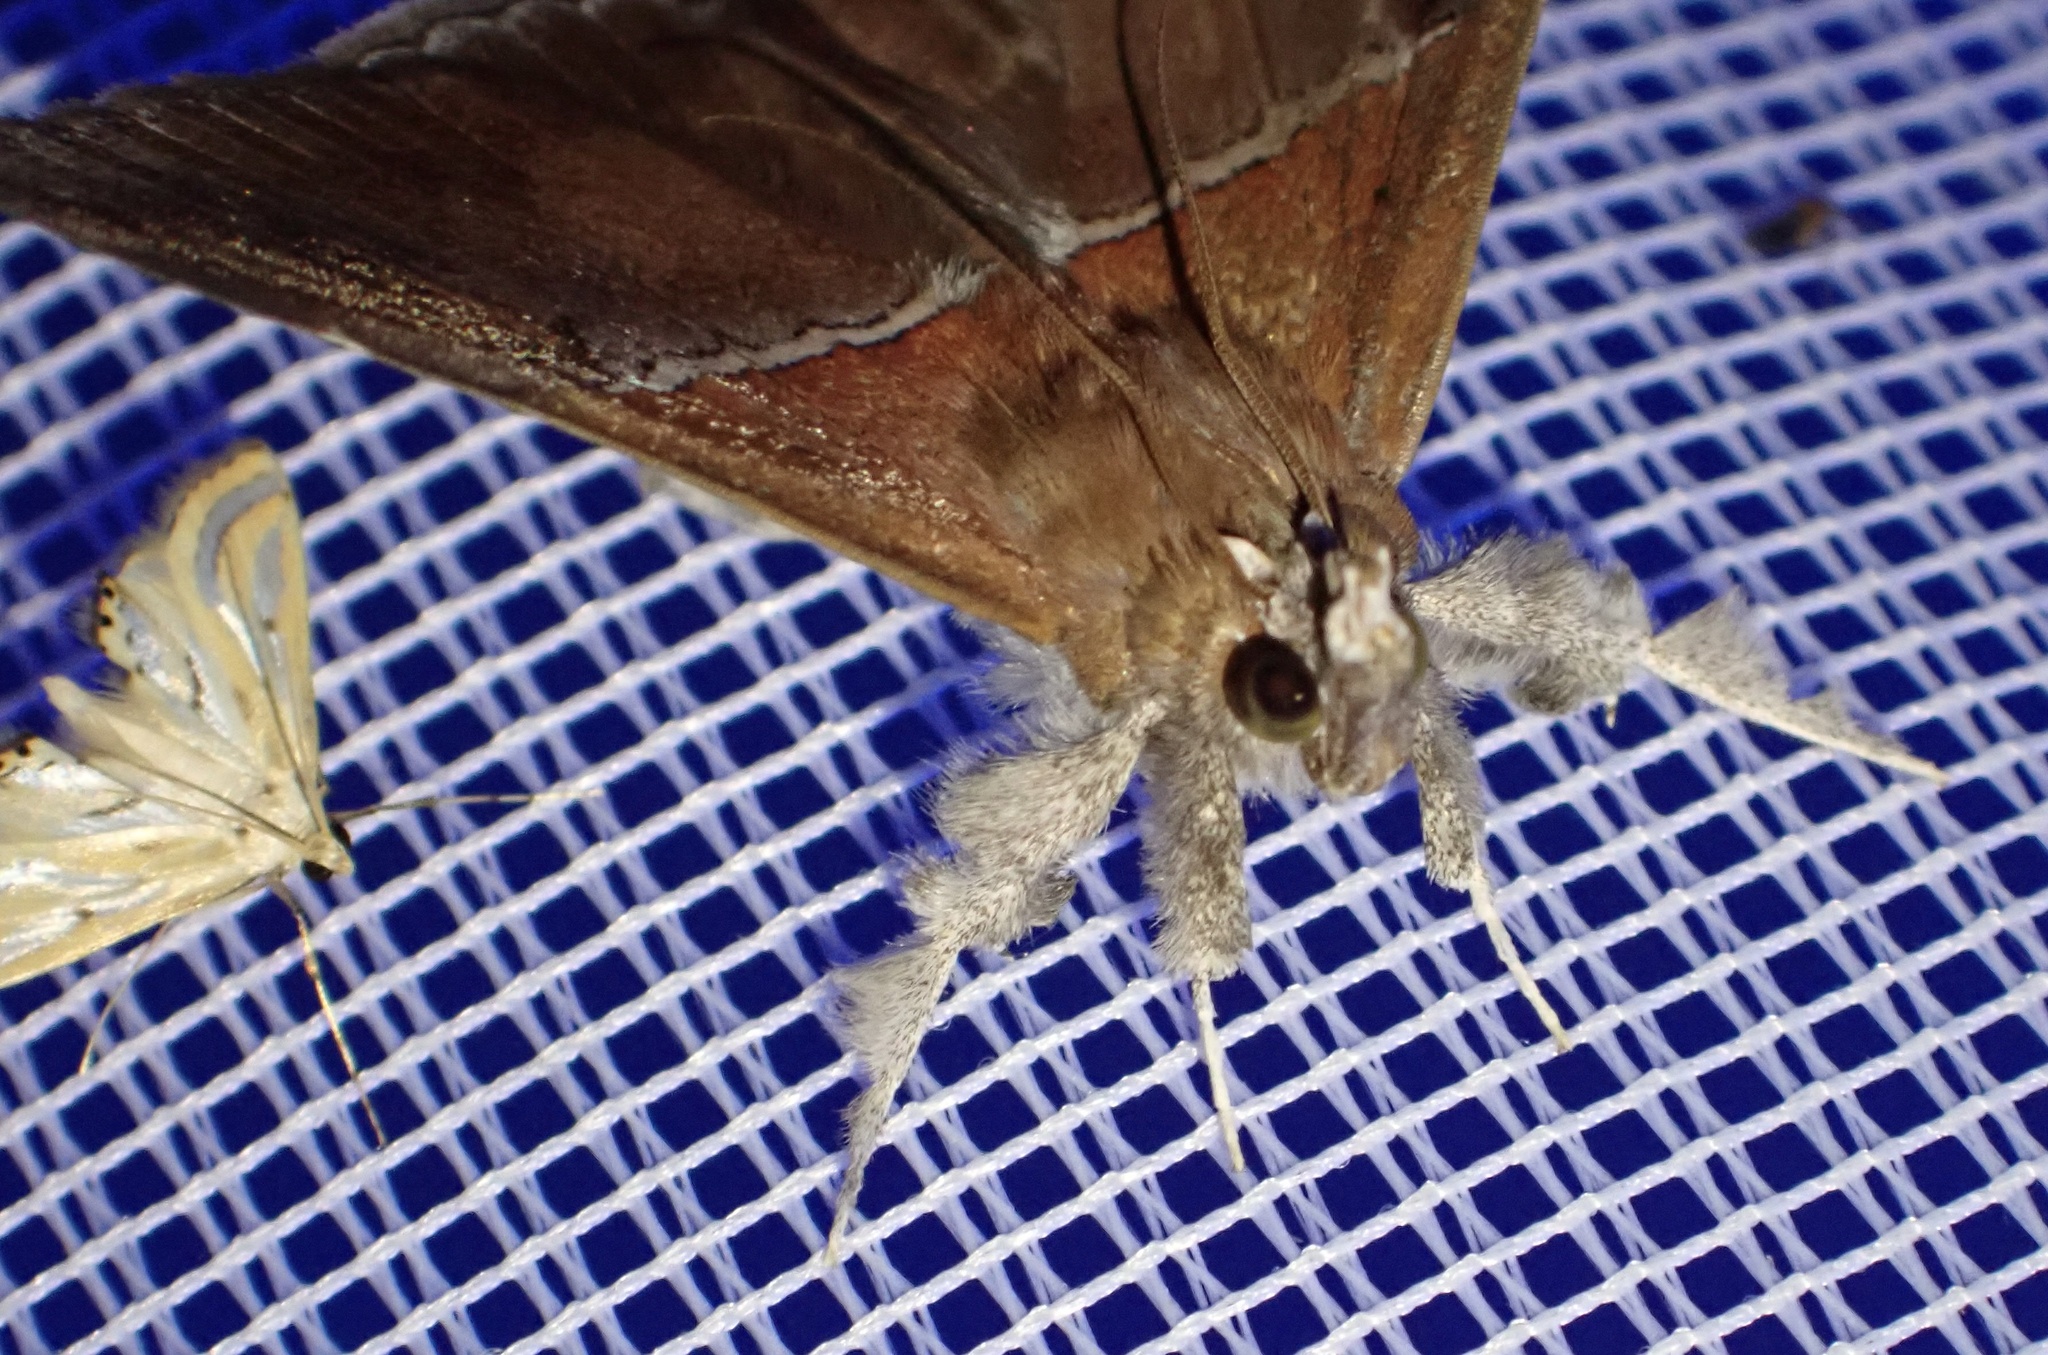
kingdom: Animalia
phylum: Arthropoda
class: Insecta
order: Lepidoptera
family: Erebidae
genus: Sympis
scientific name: Sympis rufibasis
